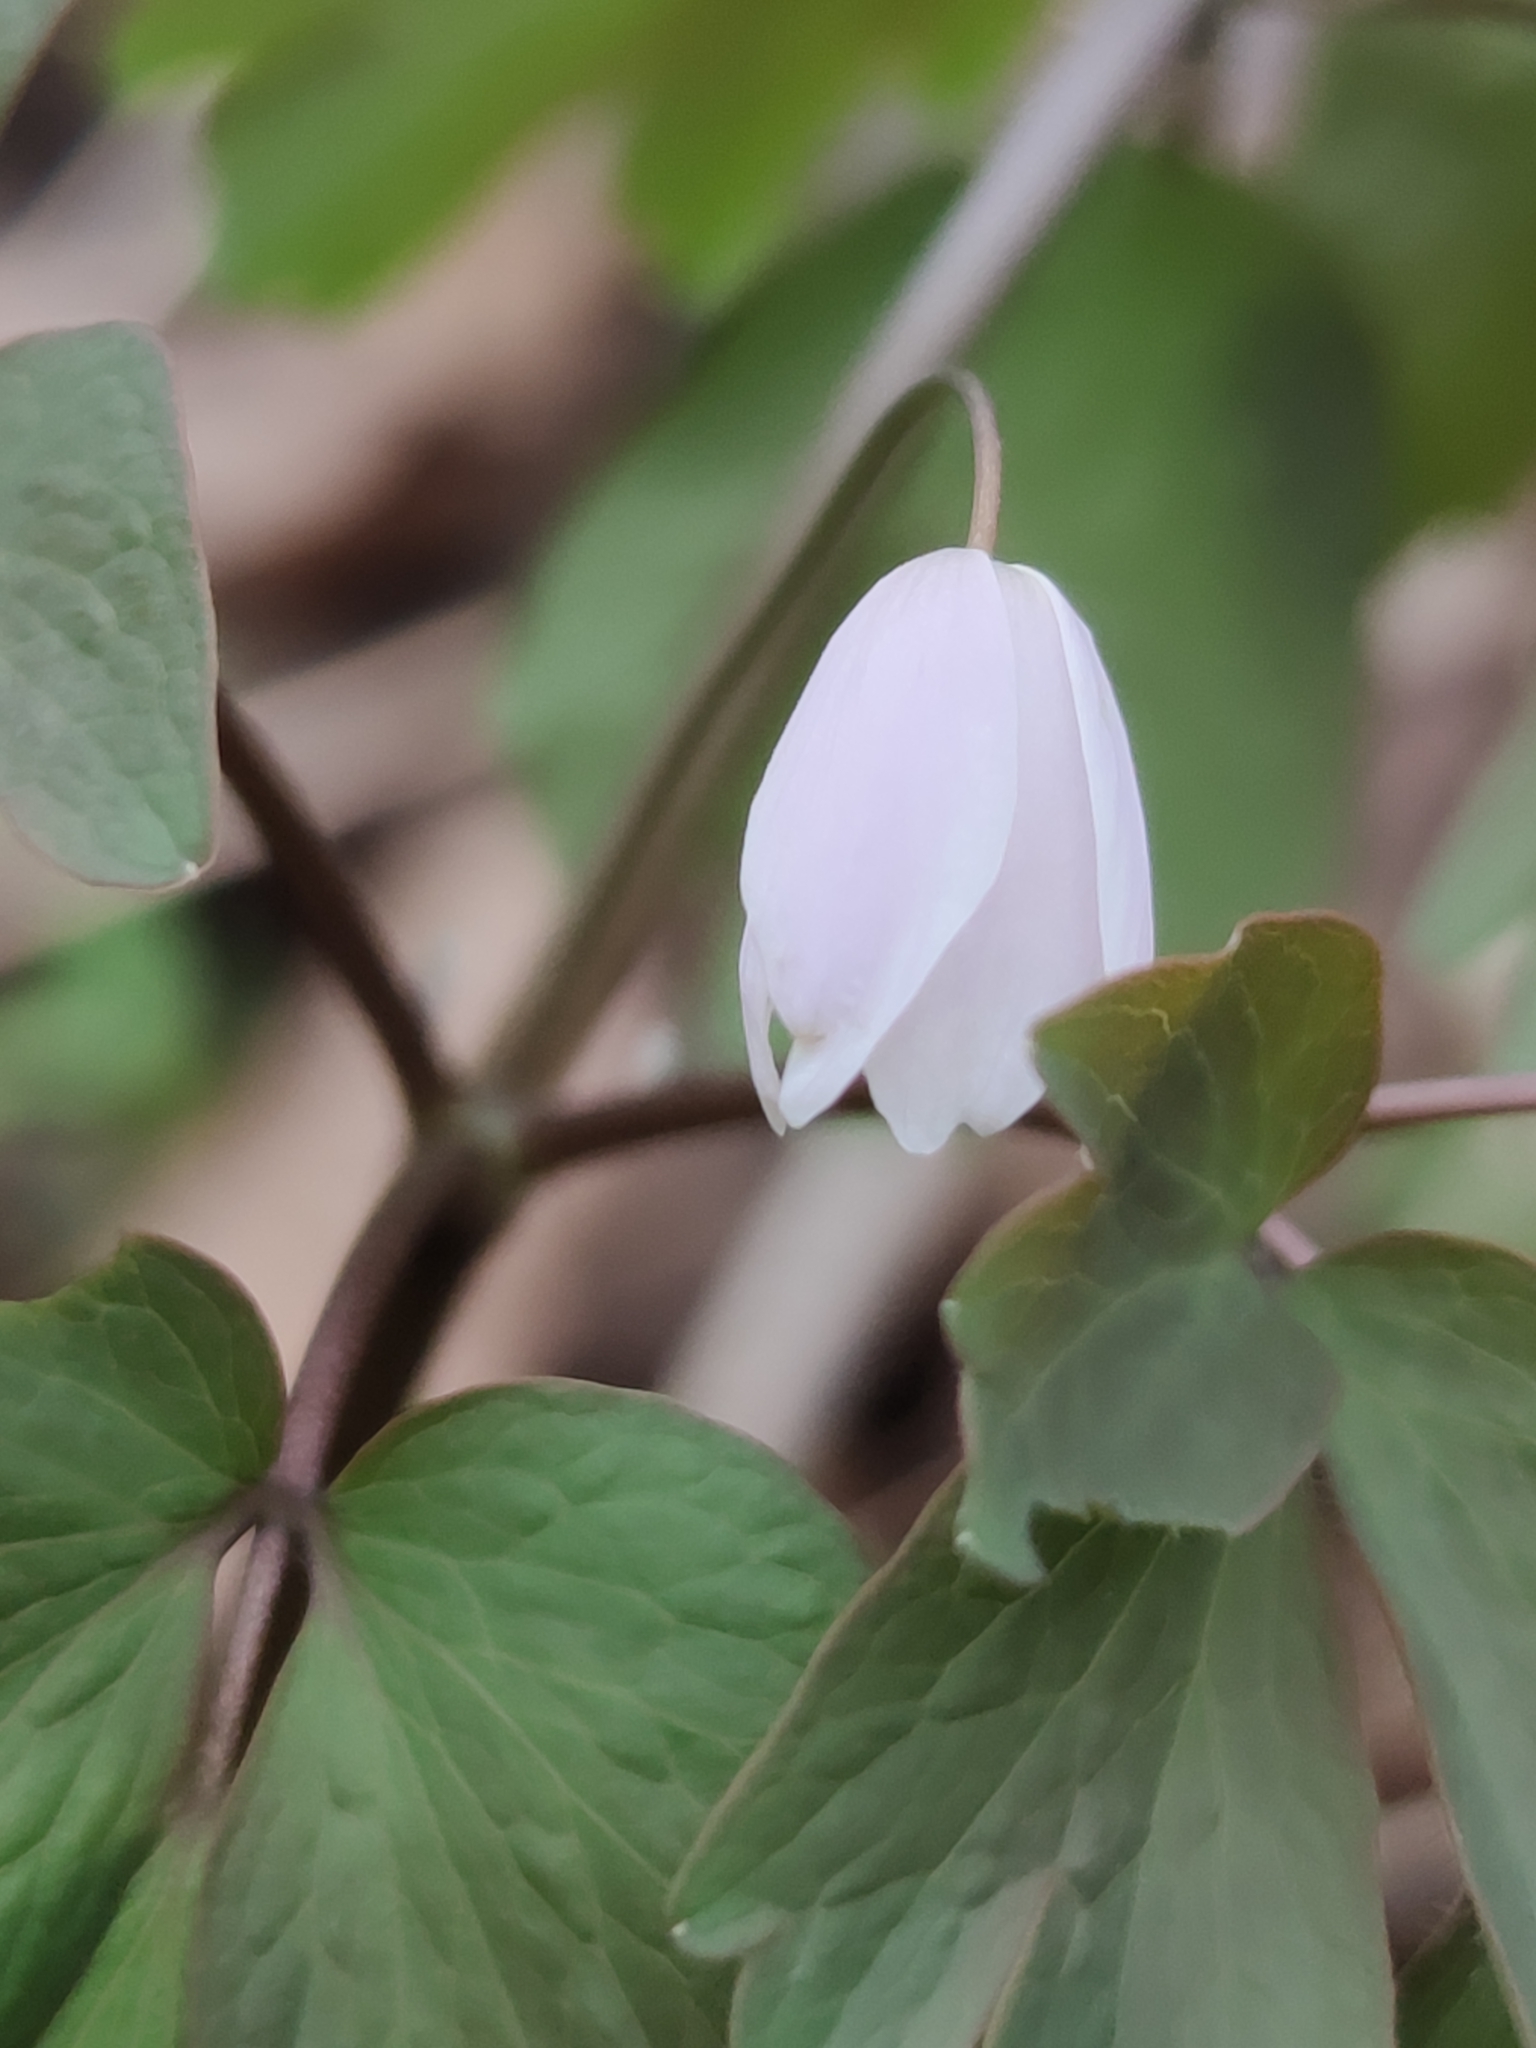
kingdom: Plantae
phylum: Tracheophyta
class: Magnoliopsida
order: Ranunculales
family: Ranunculaceae
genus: Isopyrum
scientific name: Isopyrum thalictroides
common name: Isopyrum
